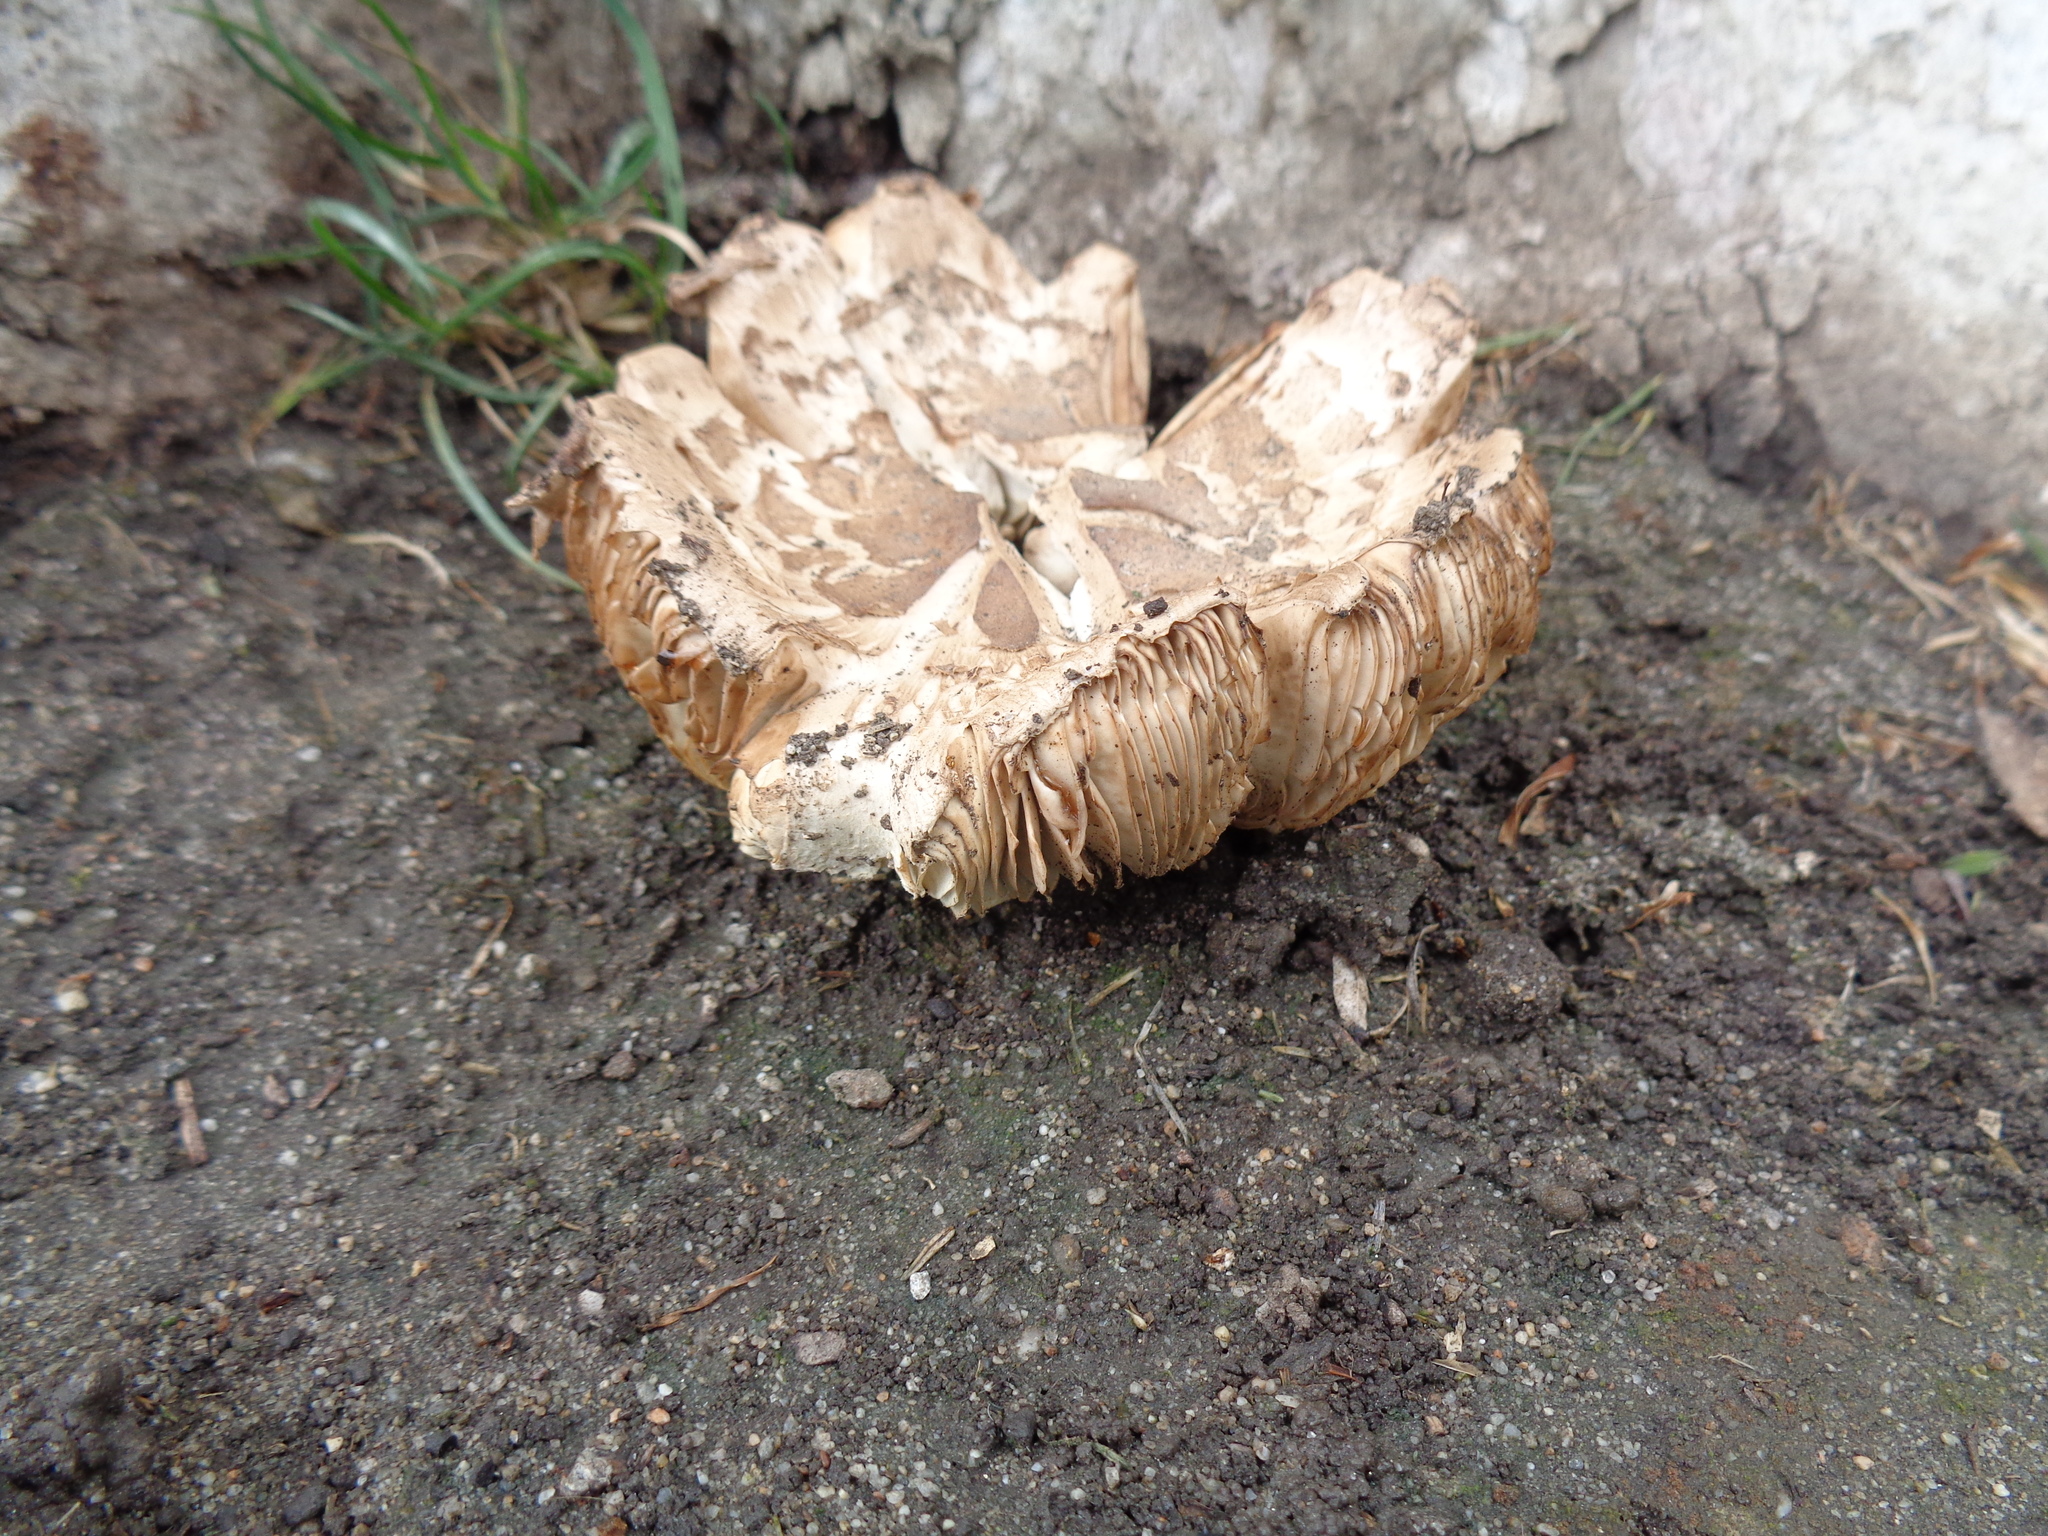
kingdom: Fungi
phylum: Basidiomycota
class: Agaricomycetes
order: Agaricales
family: Agaricaceae
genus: Chlorophyllum
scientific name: Chlorophyllum brunneum
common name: Brown parasol
